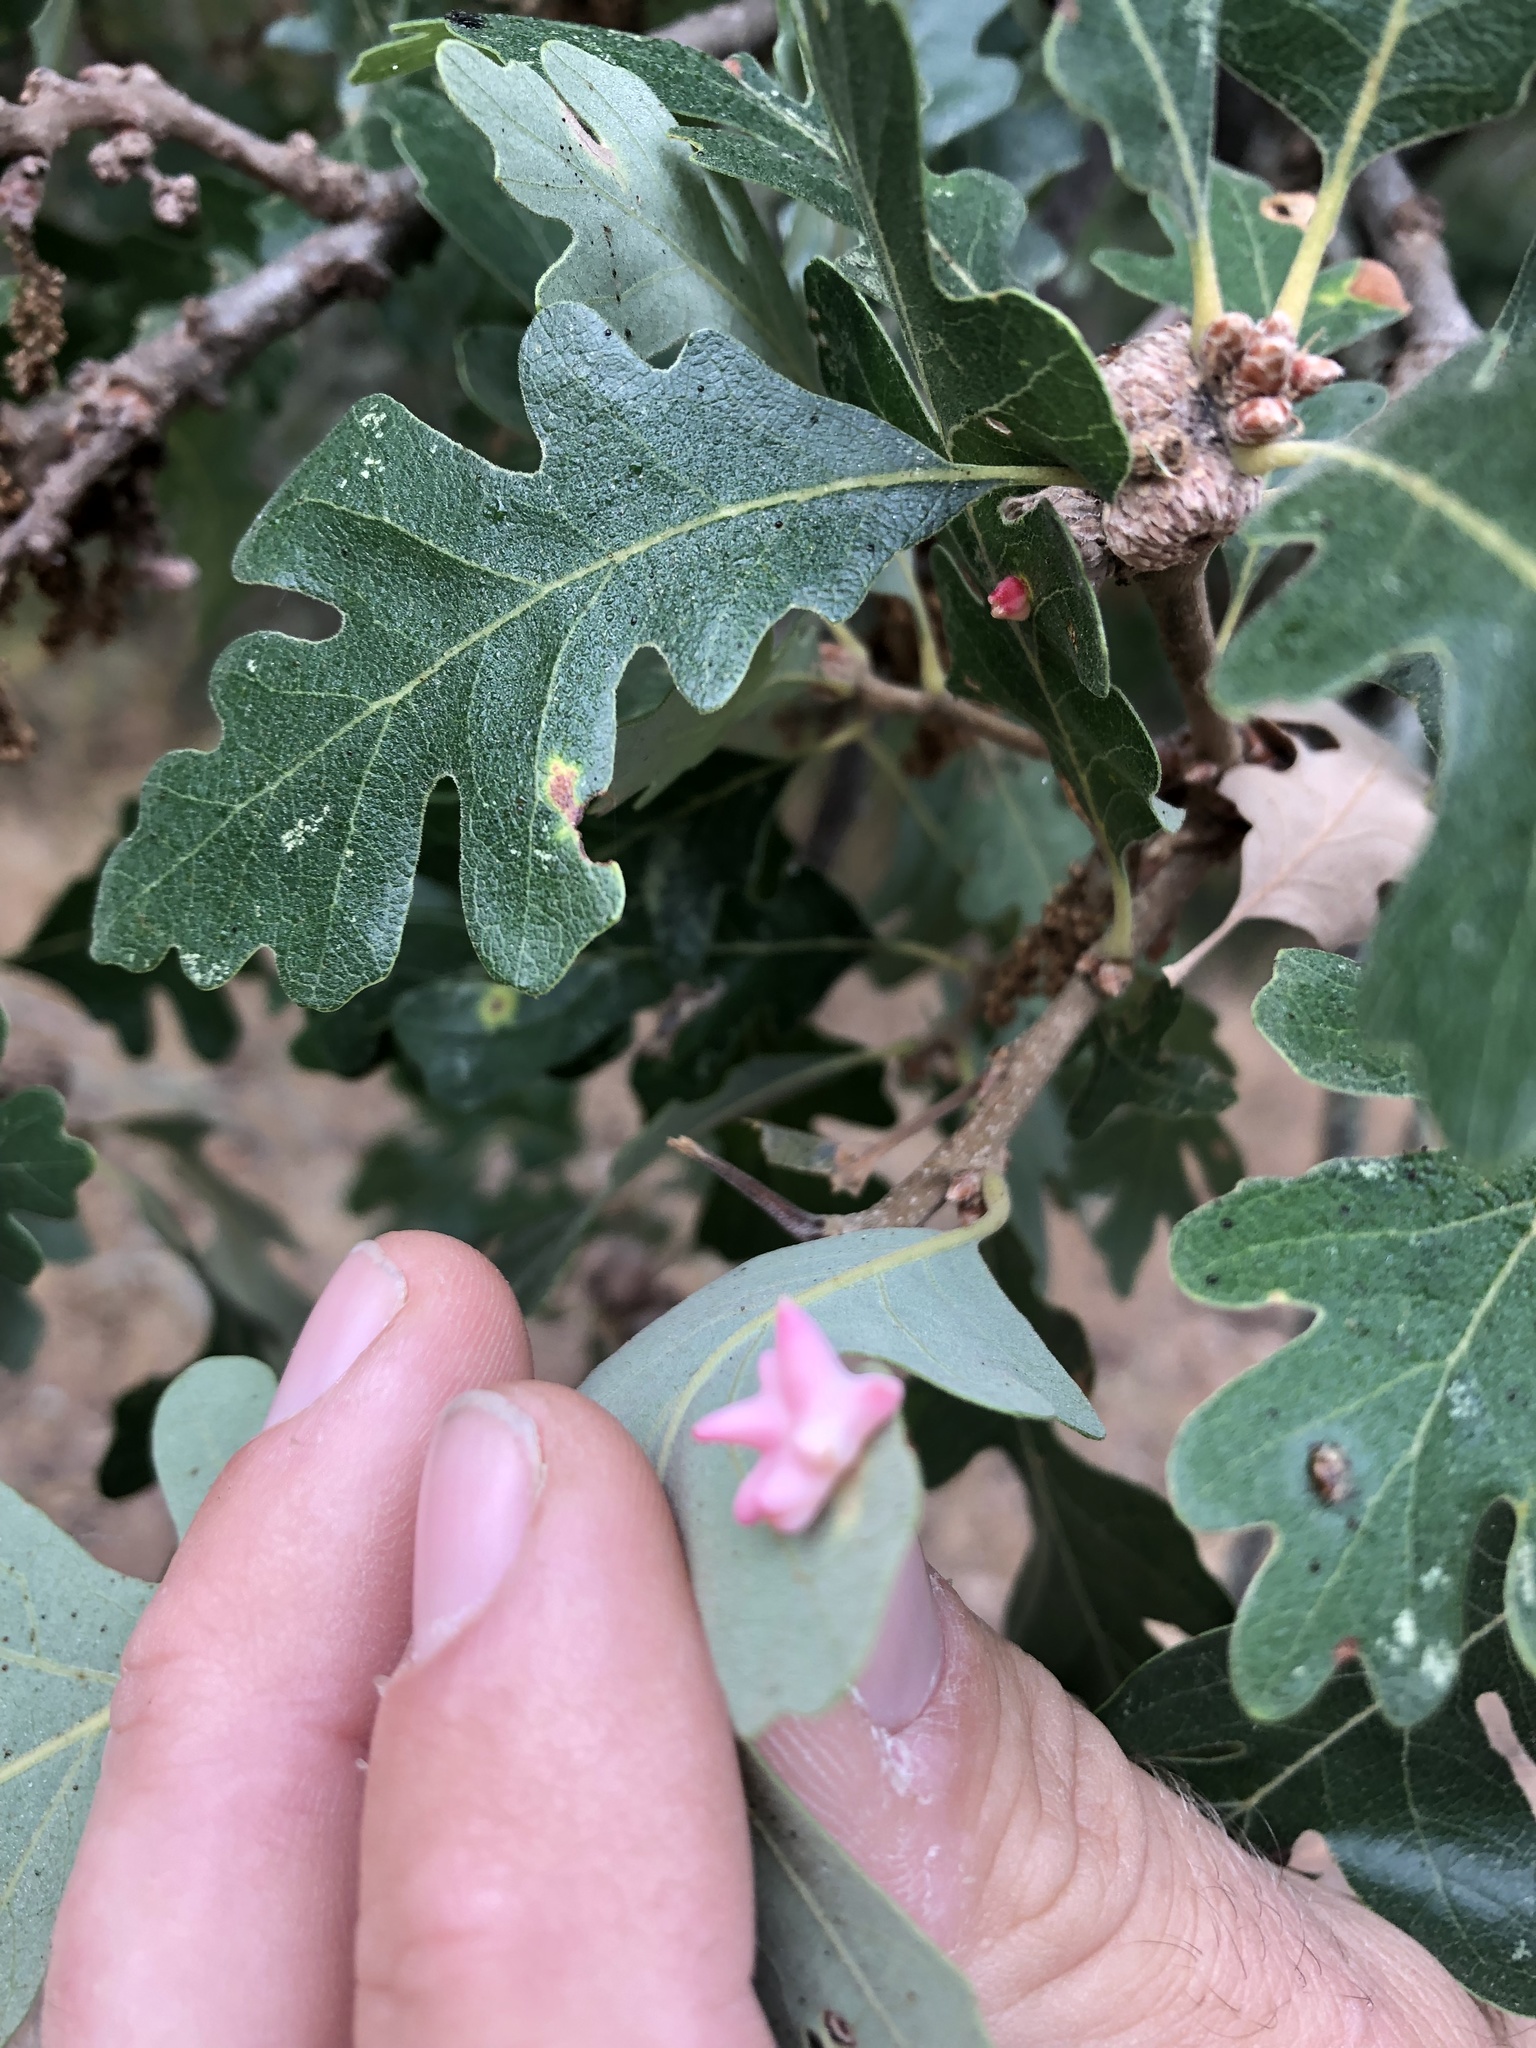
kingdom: Animalia
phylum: Arthropoda
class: Insecta
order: Hymenoptera
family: Cynipidae
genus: Cynips
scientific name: Cynips douglasi
